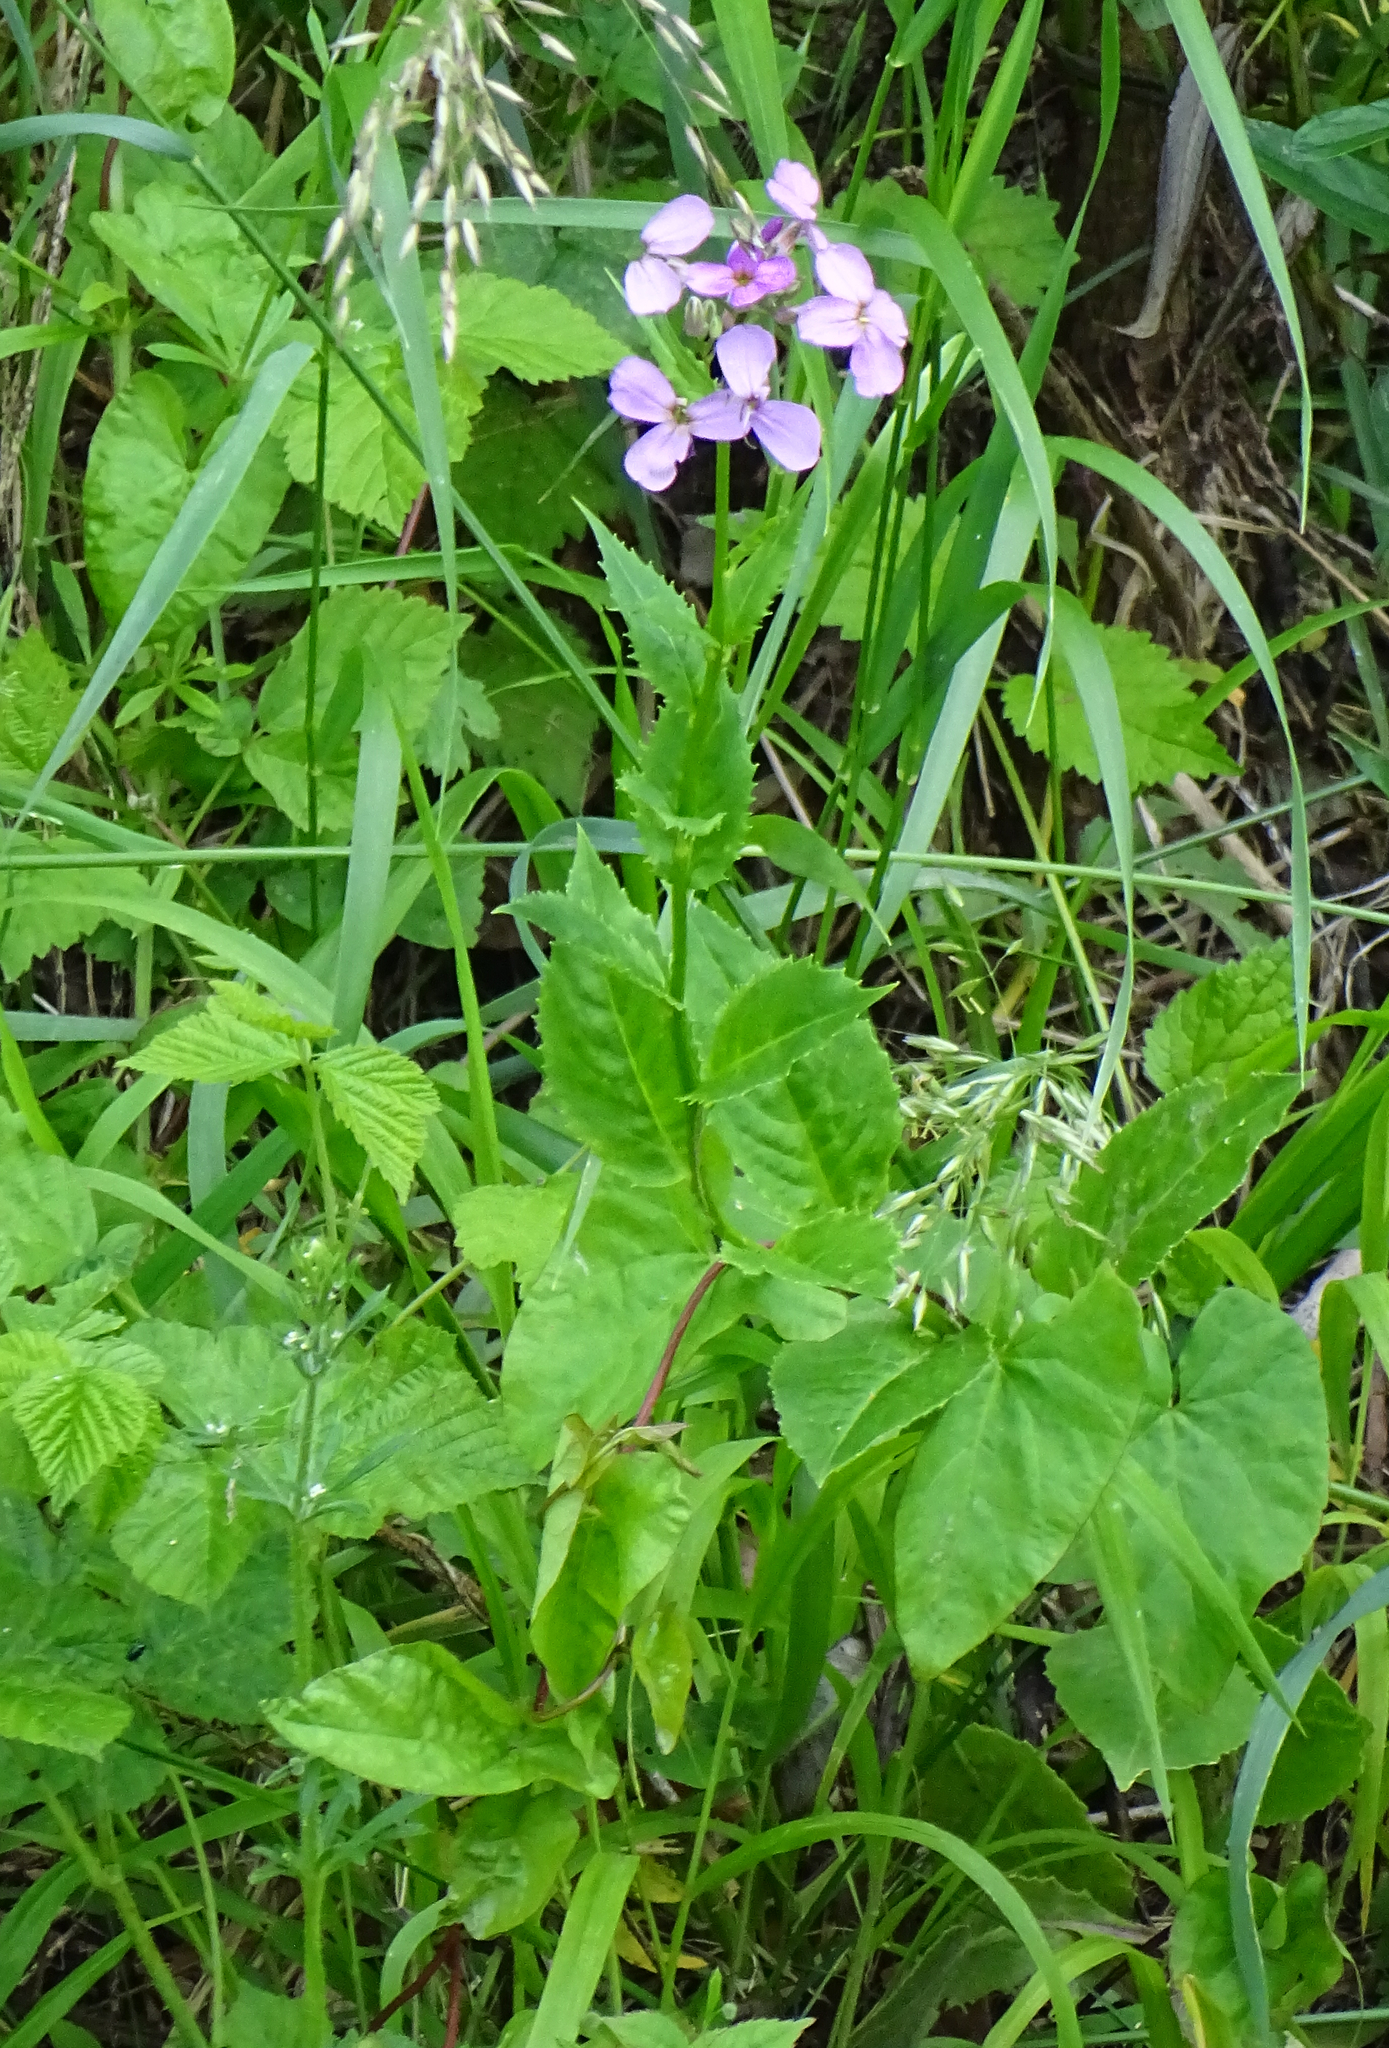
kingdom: Plantae
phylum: Tracheophyta
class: Magnoliopsida
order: Brassicales
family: Brassicaceae
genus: Hesperis
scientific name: Hesperis matronalis
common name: Dame's-violet
